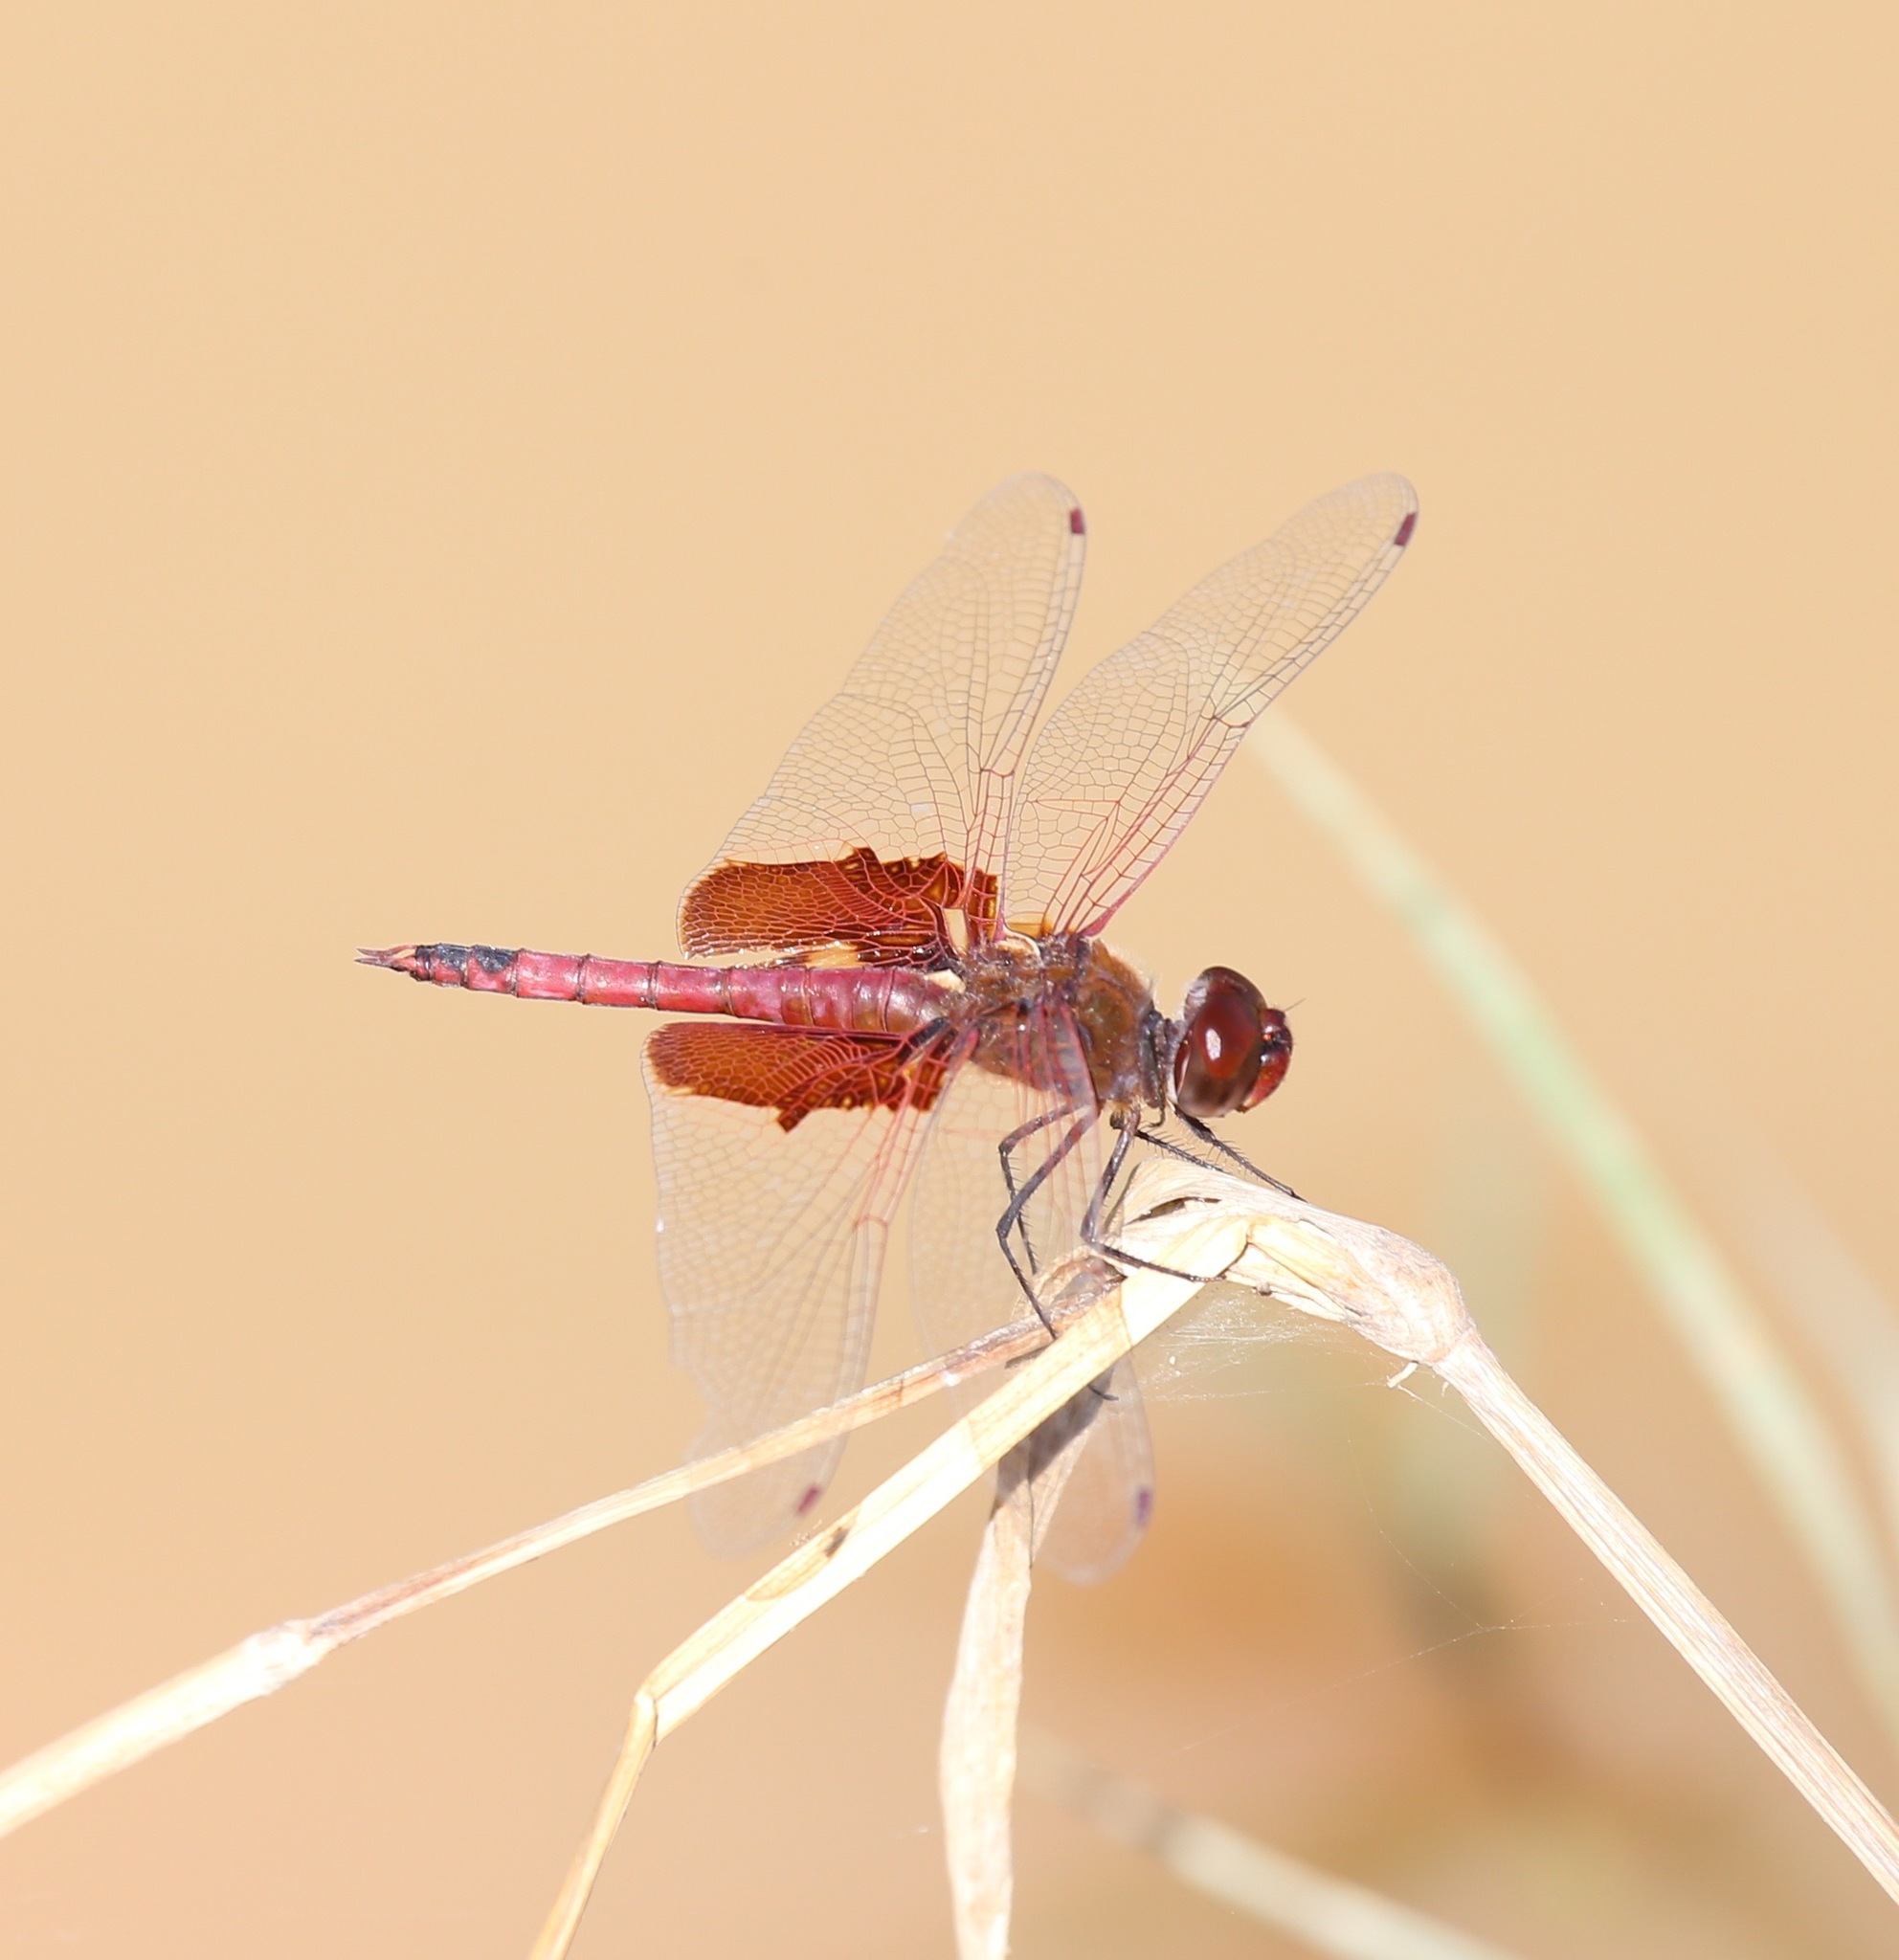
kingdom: Animalia
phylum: Arthropoda
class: Insecta
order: Odonata
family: Libellulidae
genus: Tramea
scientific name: Tramea onusta
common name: Red saddlebags
